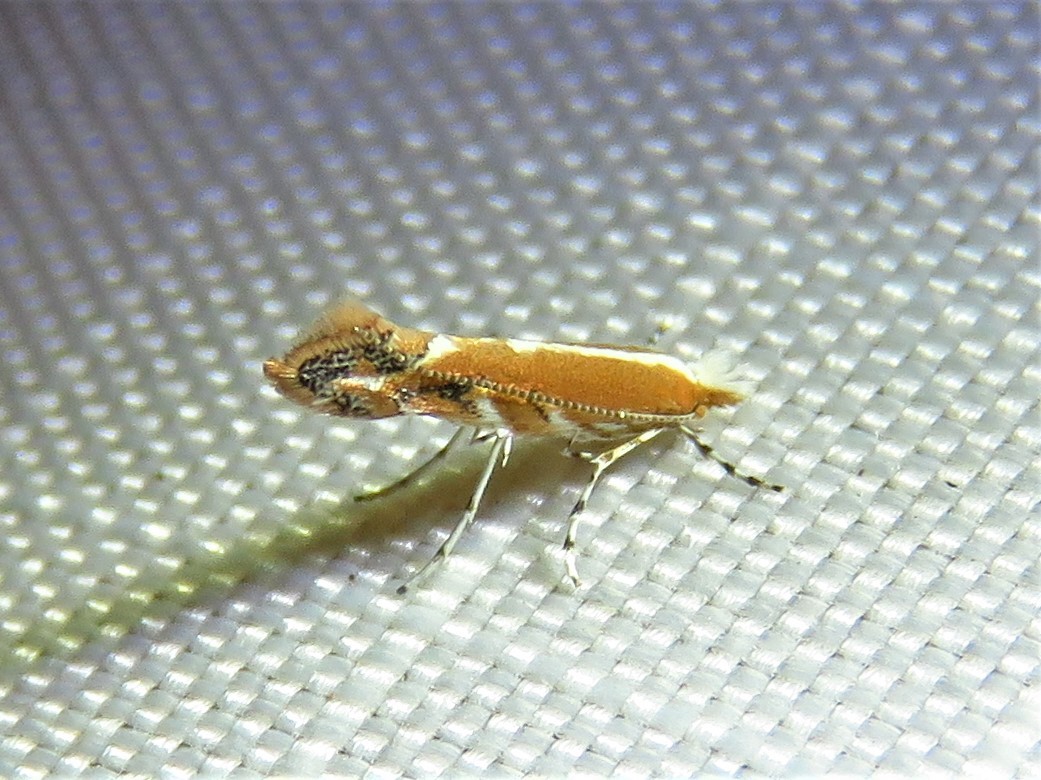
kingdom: Animalia
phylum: Arthropoda
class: Insecta
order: Lepidoptera
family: Gracillariidae
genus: Cameraria
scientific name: Cameraria quercivorella
